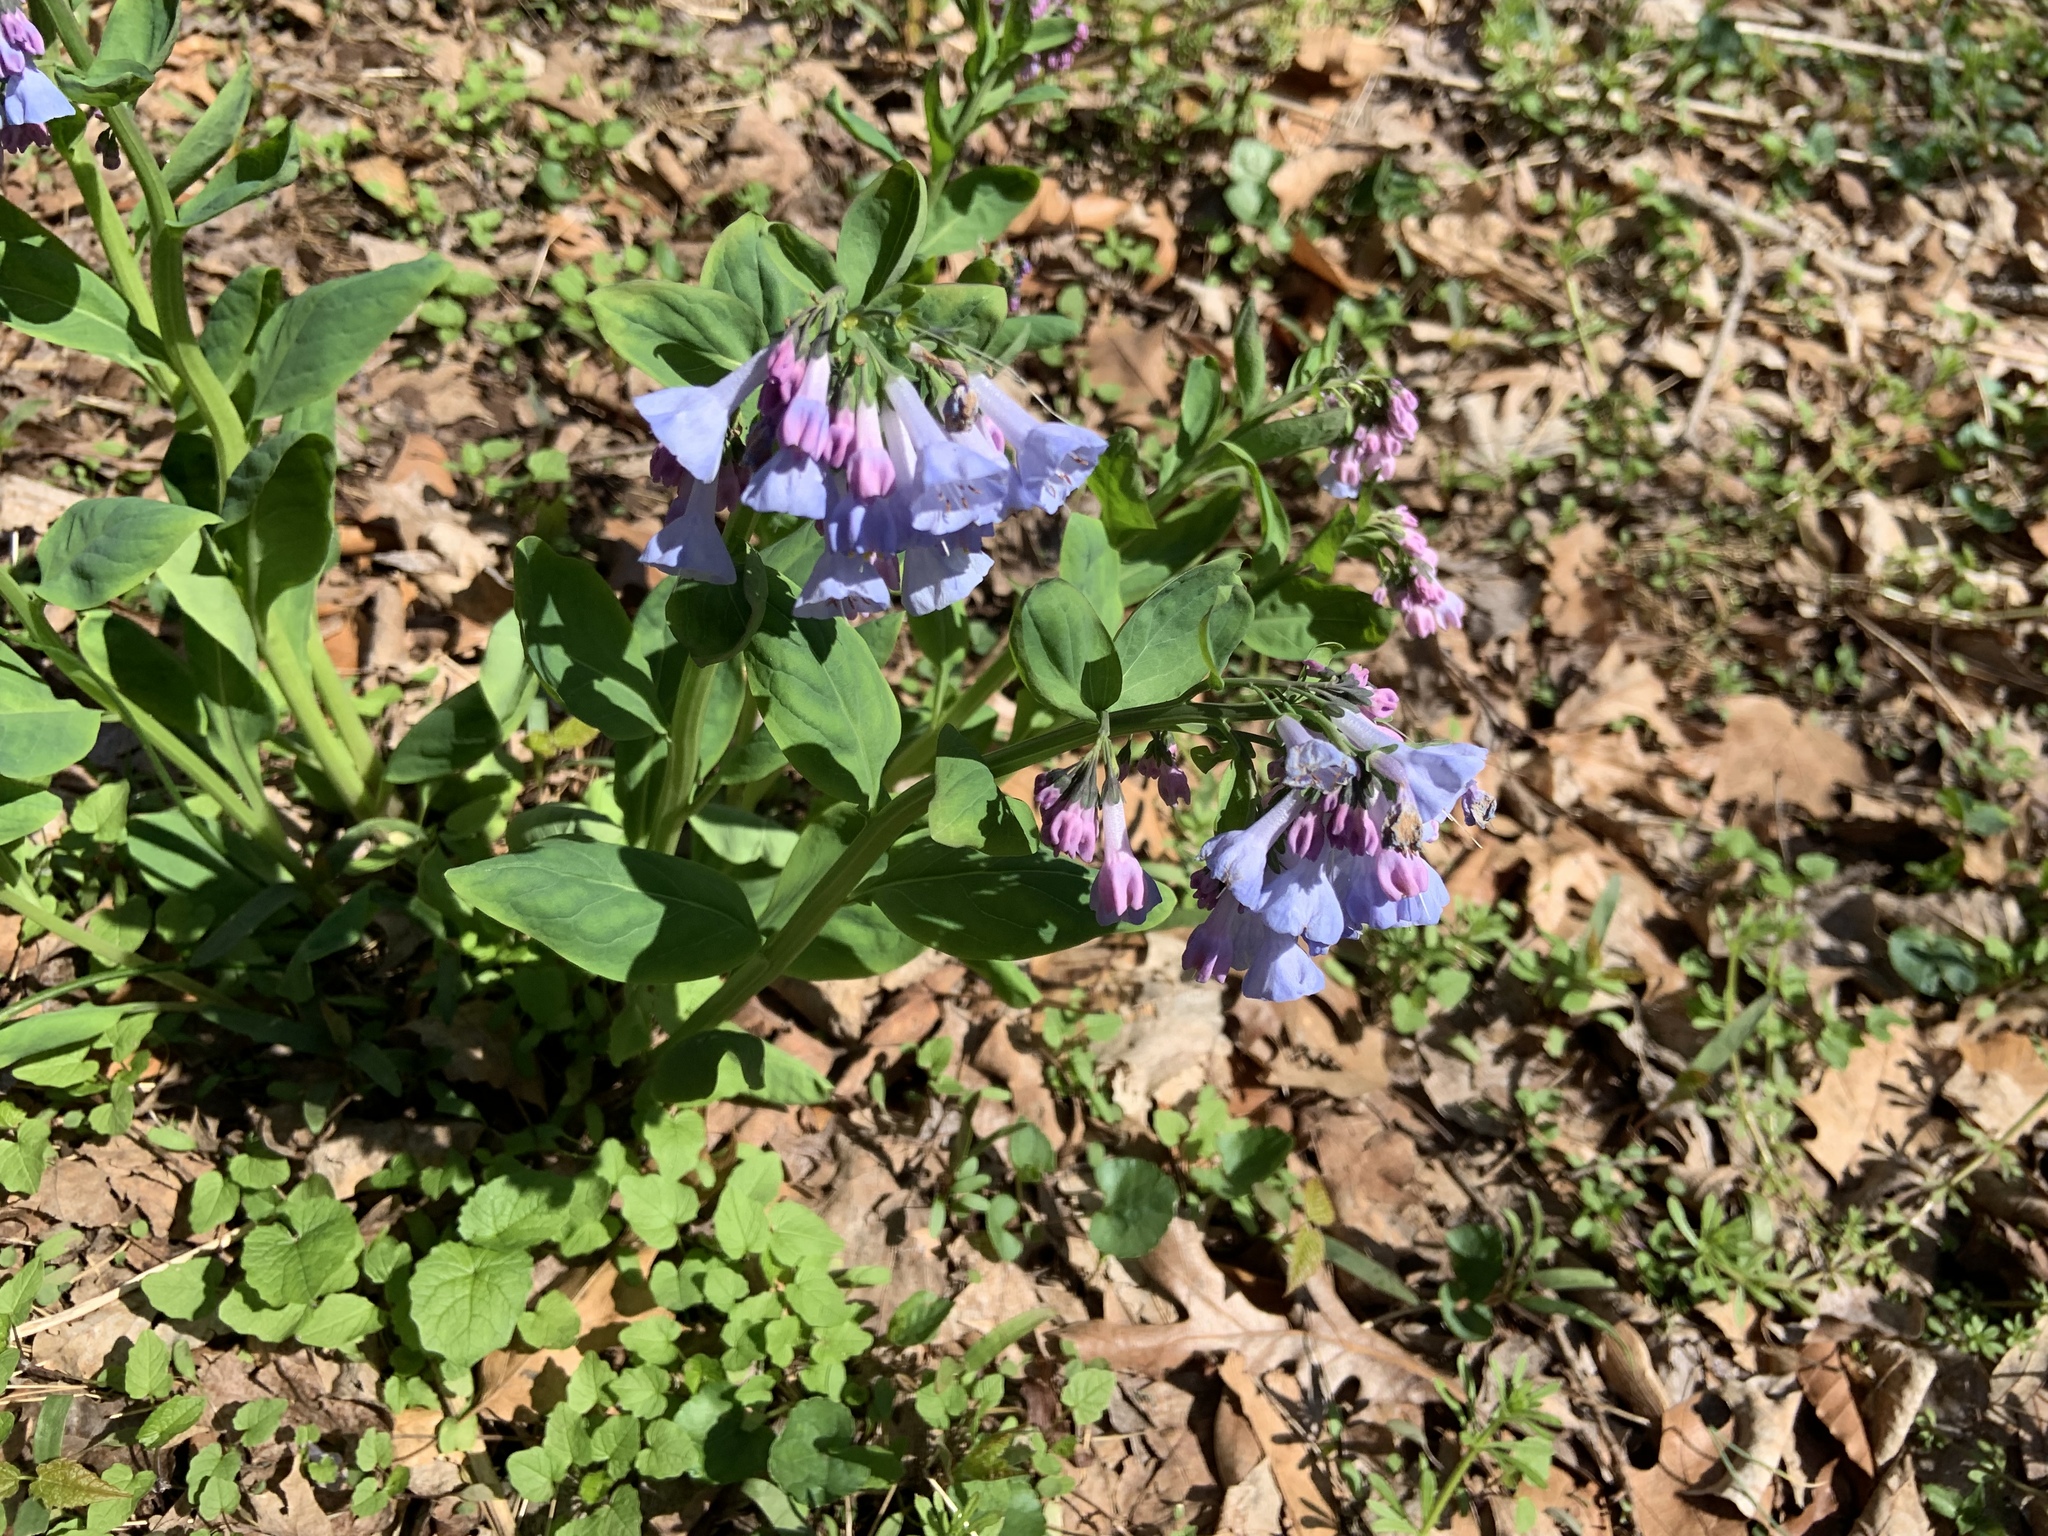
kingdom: Plantae
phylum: Tracheophyta
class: Magnoliopsida
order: Boraginales
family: Boraginaceae
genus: Mertensia
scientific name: Mertensia virginica
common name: Virginia bluebells
